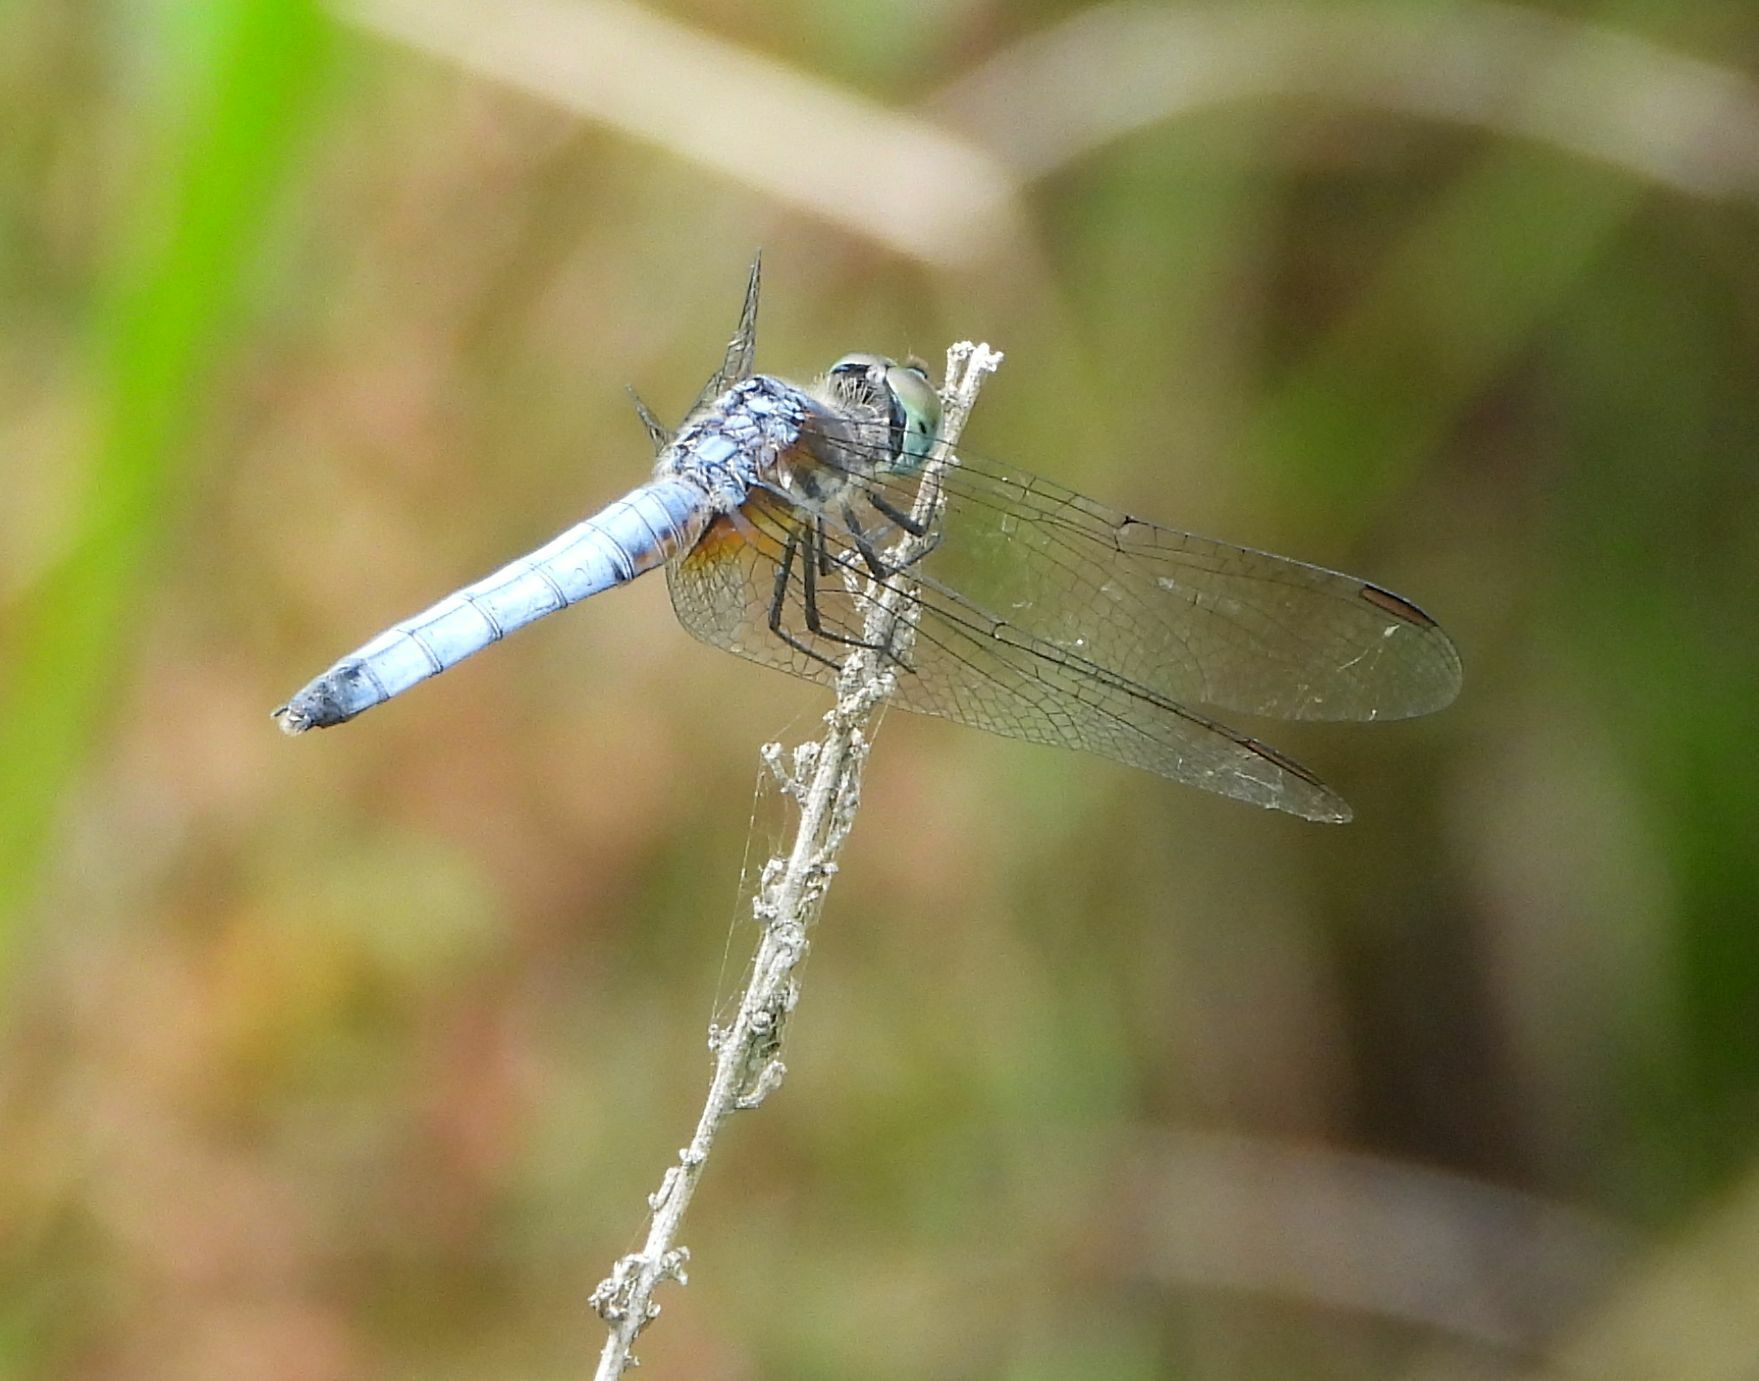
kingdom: Animalia
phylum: Arthropoda
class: Insecta
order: Odonata
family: Libellulidae
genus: Pachydiplax
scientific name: Pachydiplax longipennis
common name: Blue dasher
